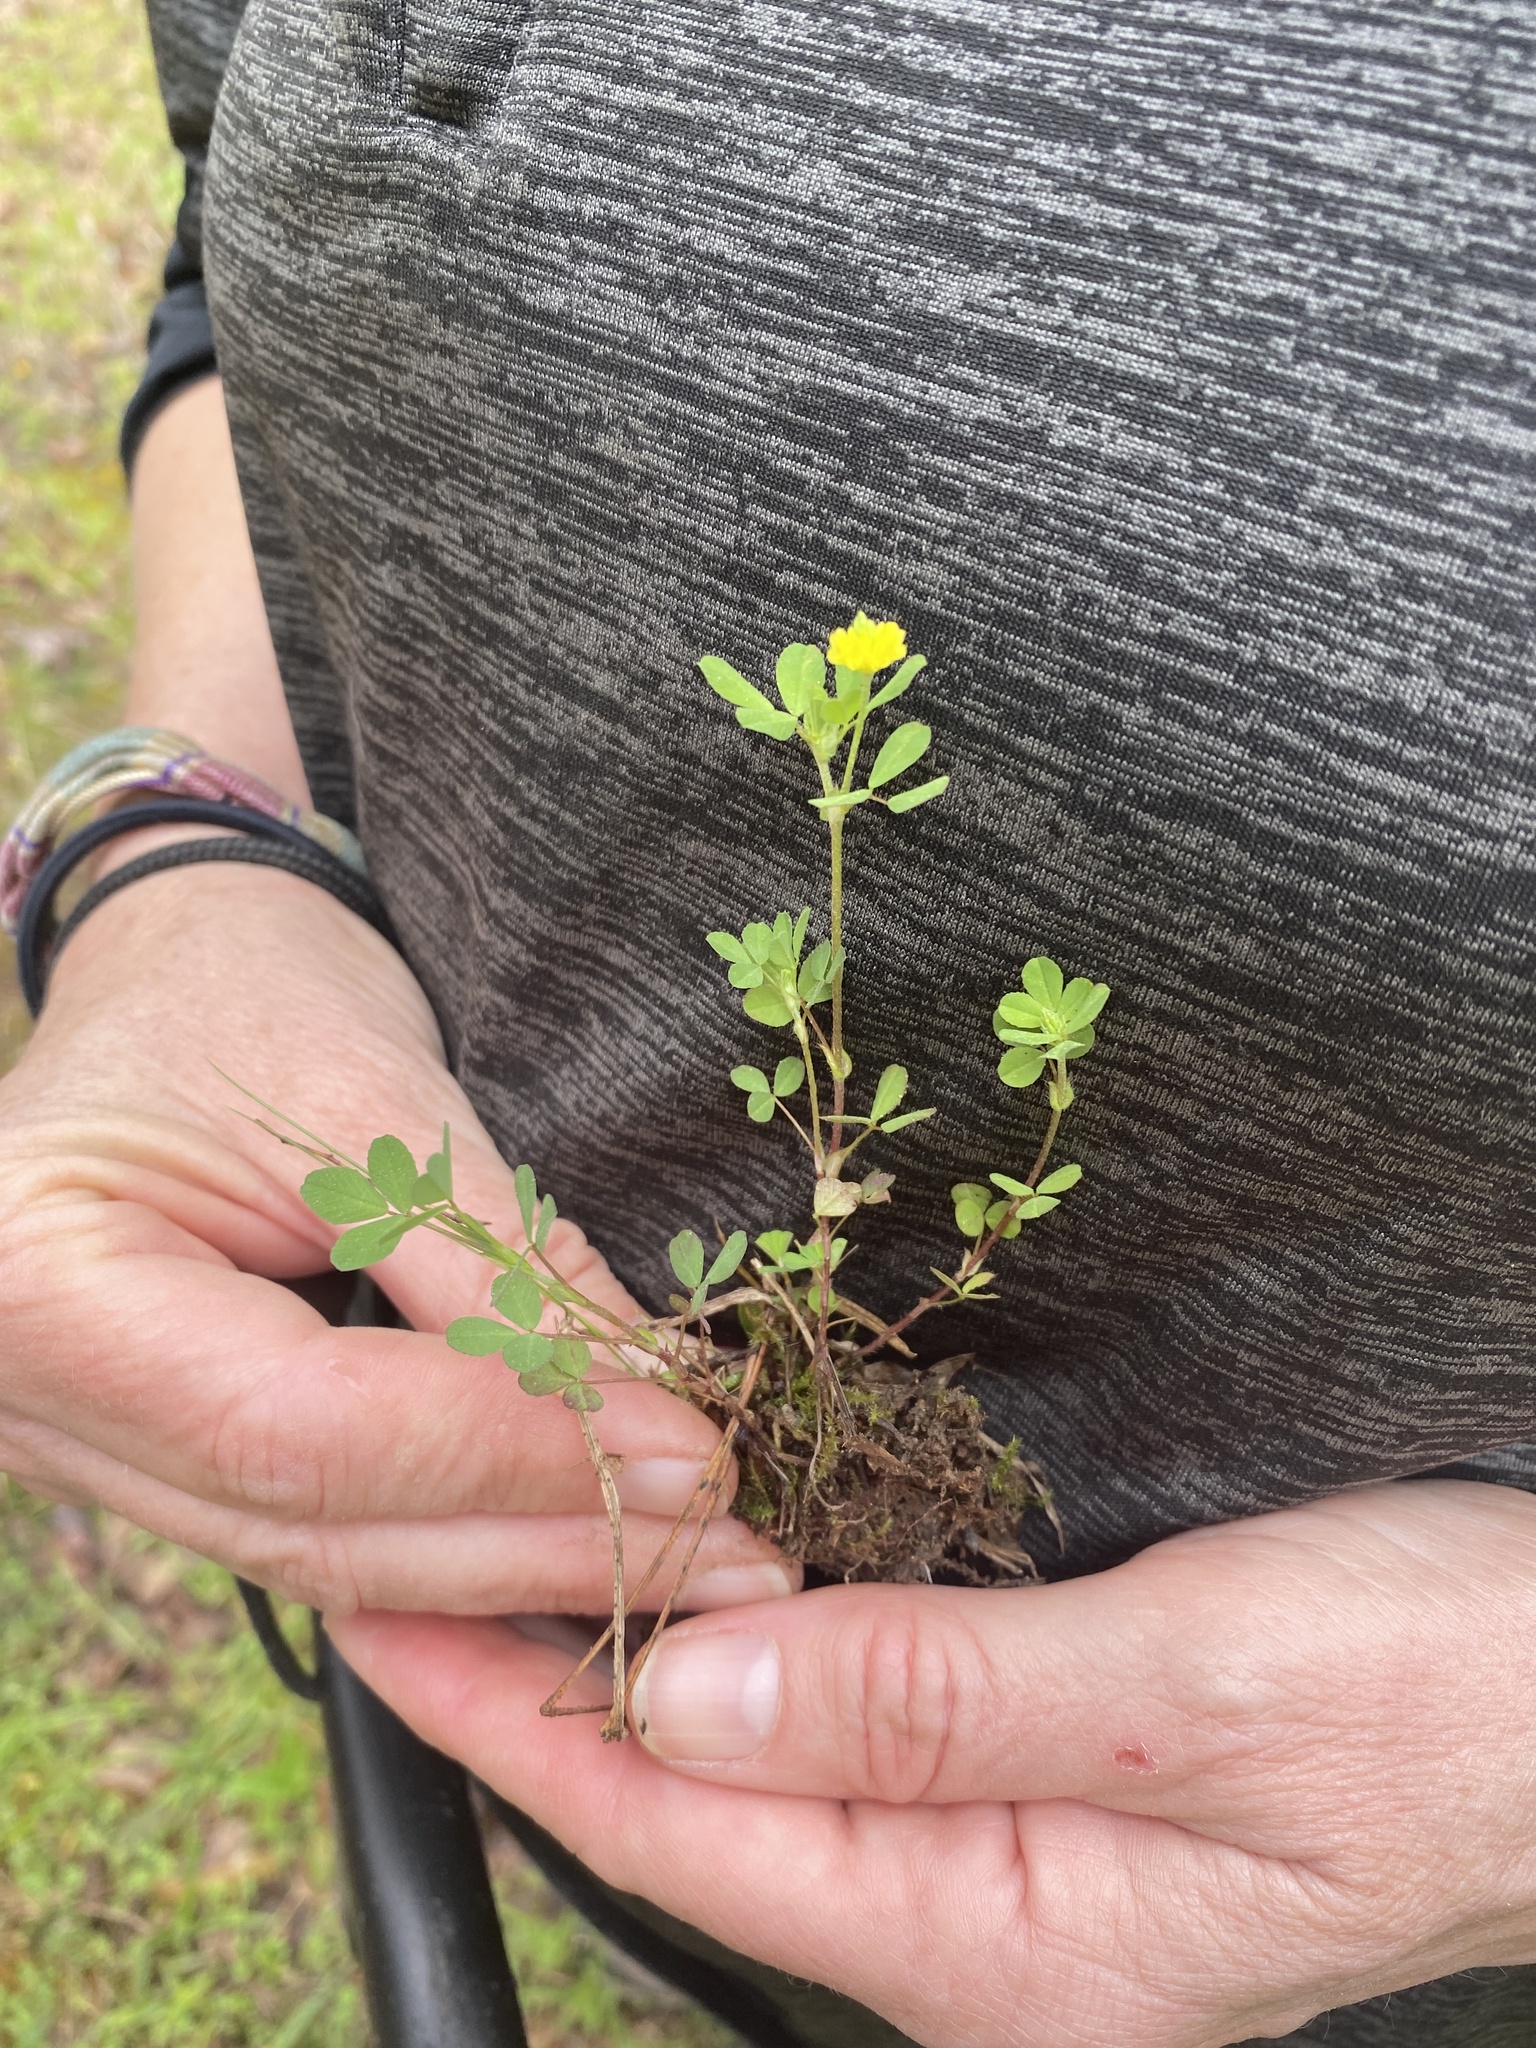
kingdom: Plantae
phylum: Tracheophyta
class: Magnoliopsida
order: Fabales
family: Fabaceae
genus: Trifolium
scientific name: Trifolium dubium
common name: Suckling clover
